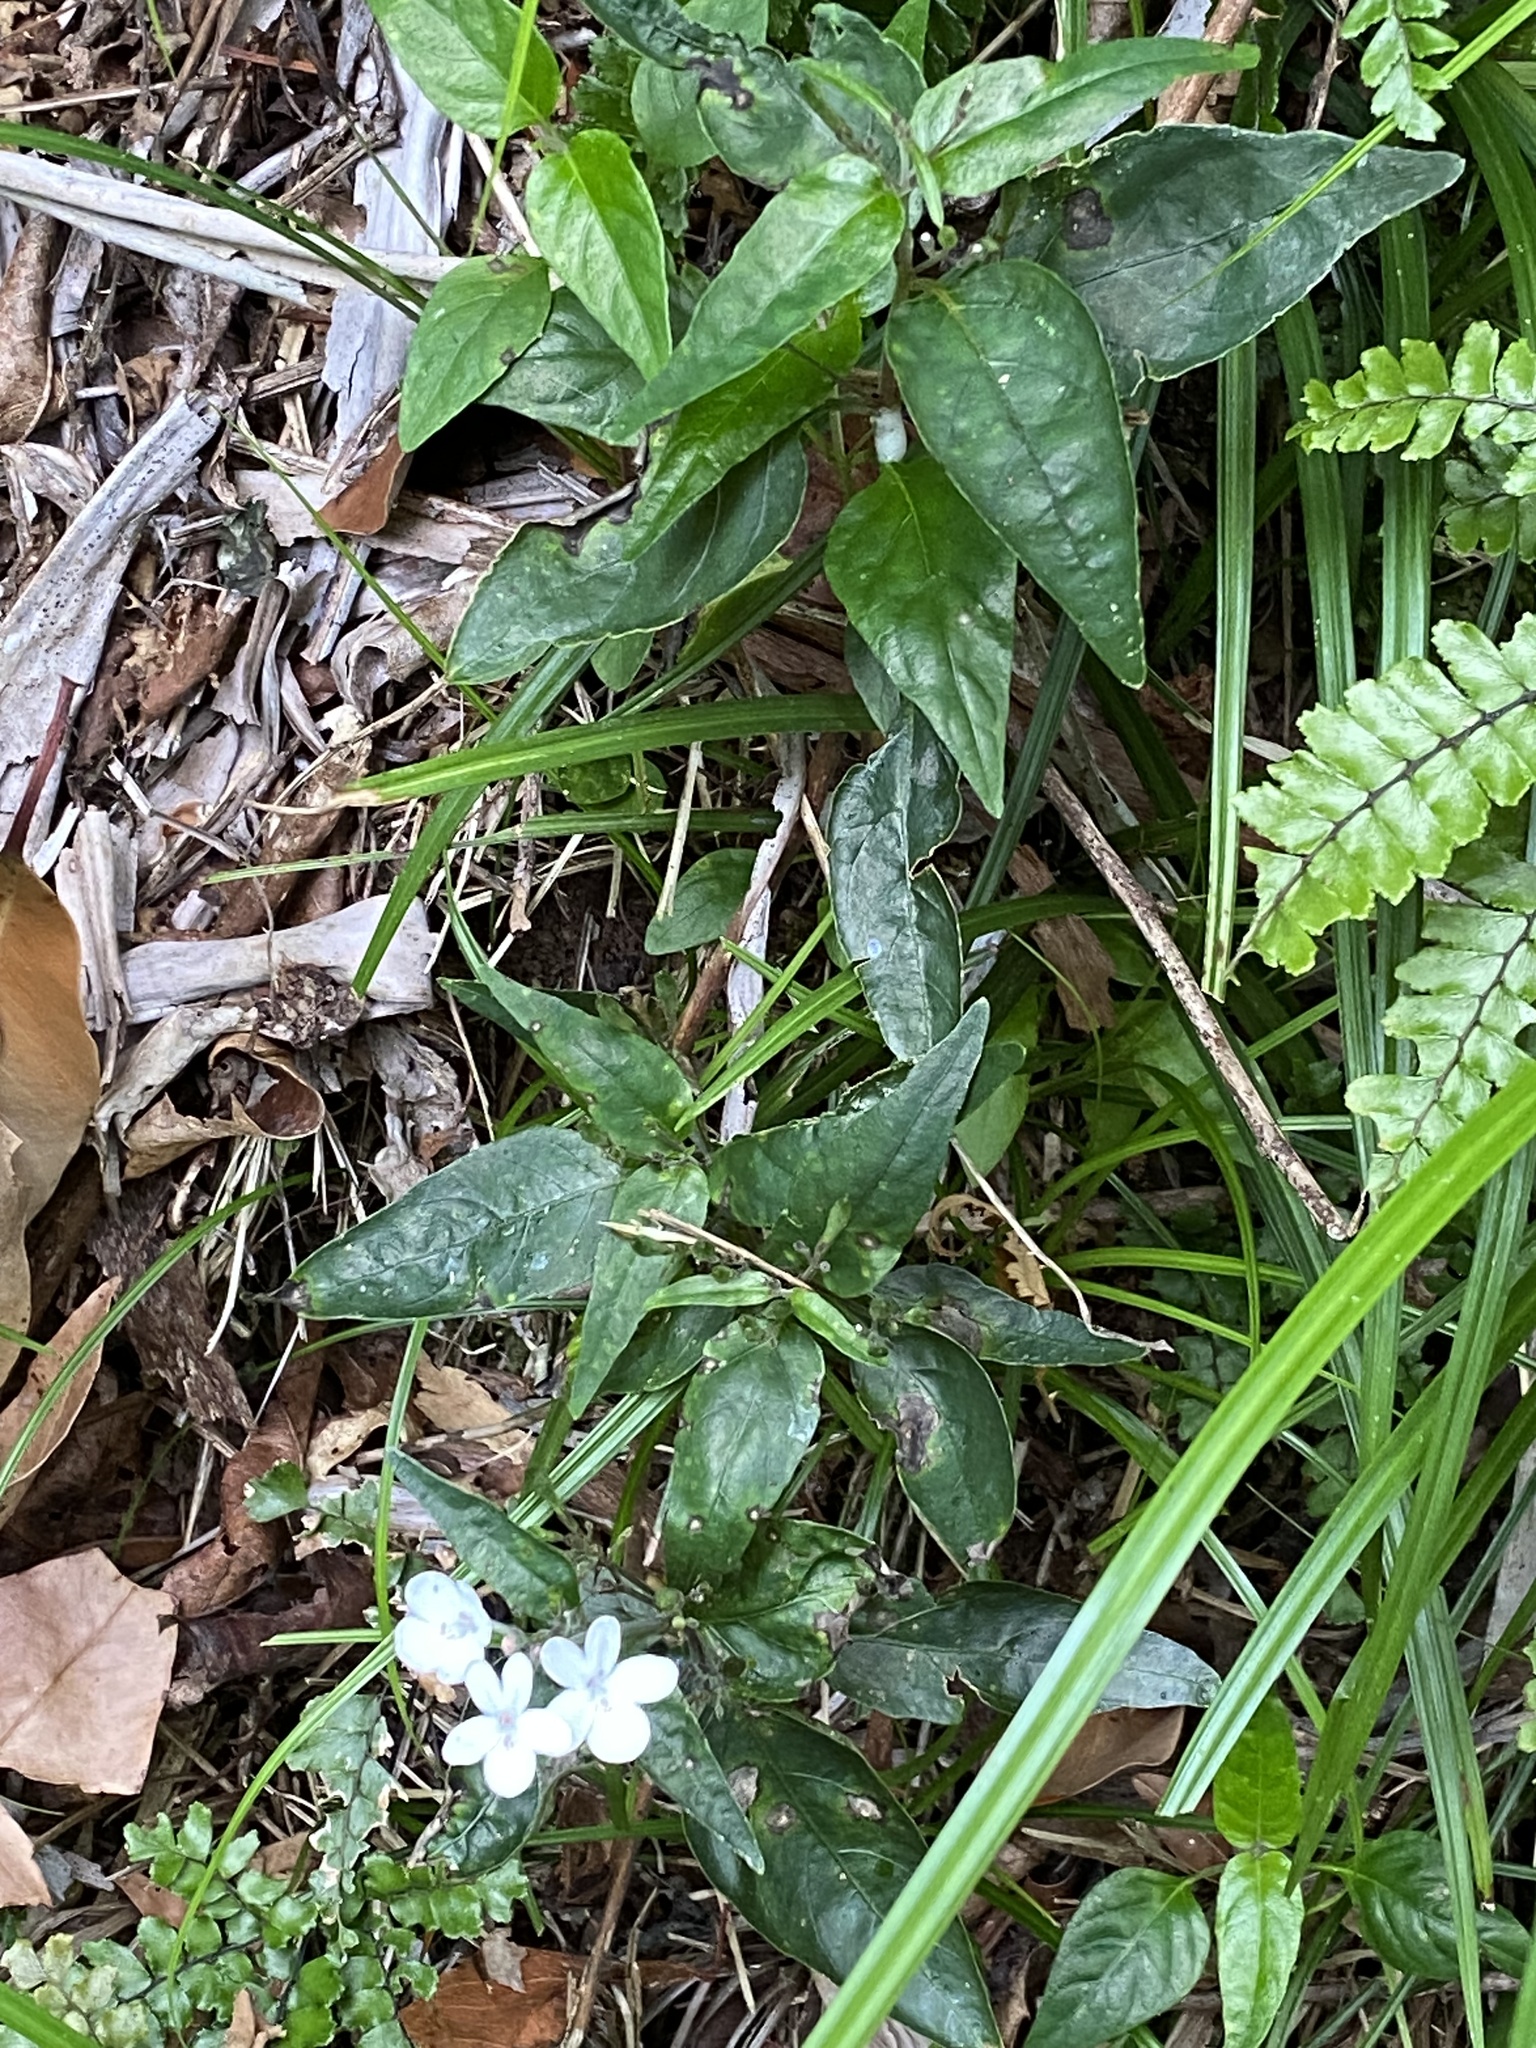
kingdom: Plantae
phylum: Tracheophyta
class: Magnoliopsida
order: Lamiales
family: Acanthaceae
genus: Pseuderanthemum
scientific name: Pseuderanthemum variabile
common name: Night and afternoon
